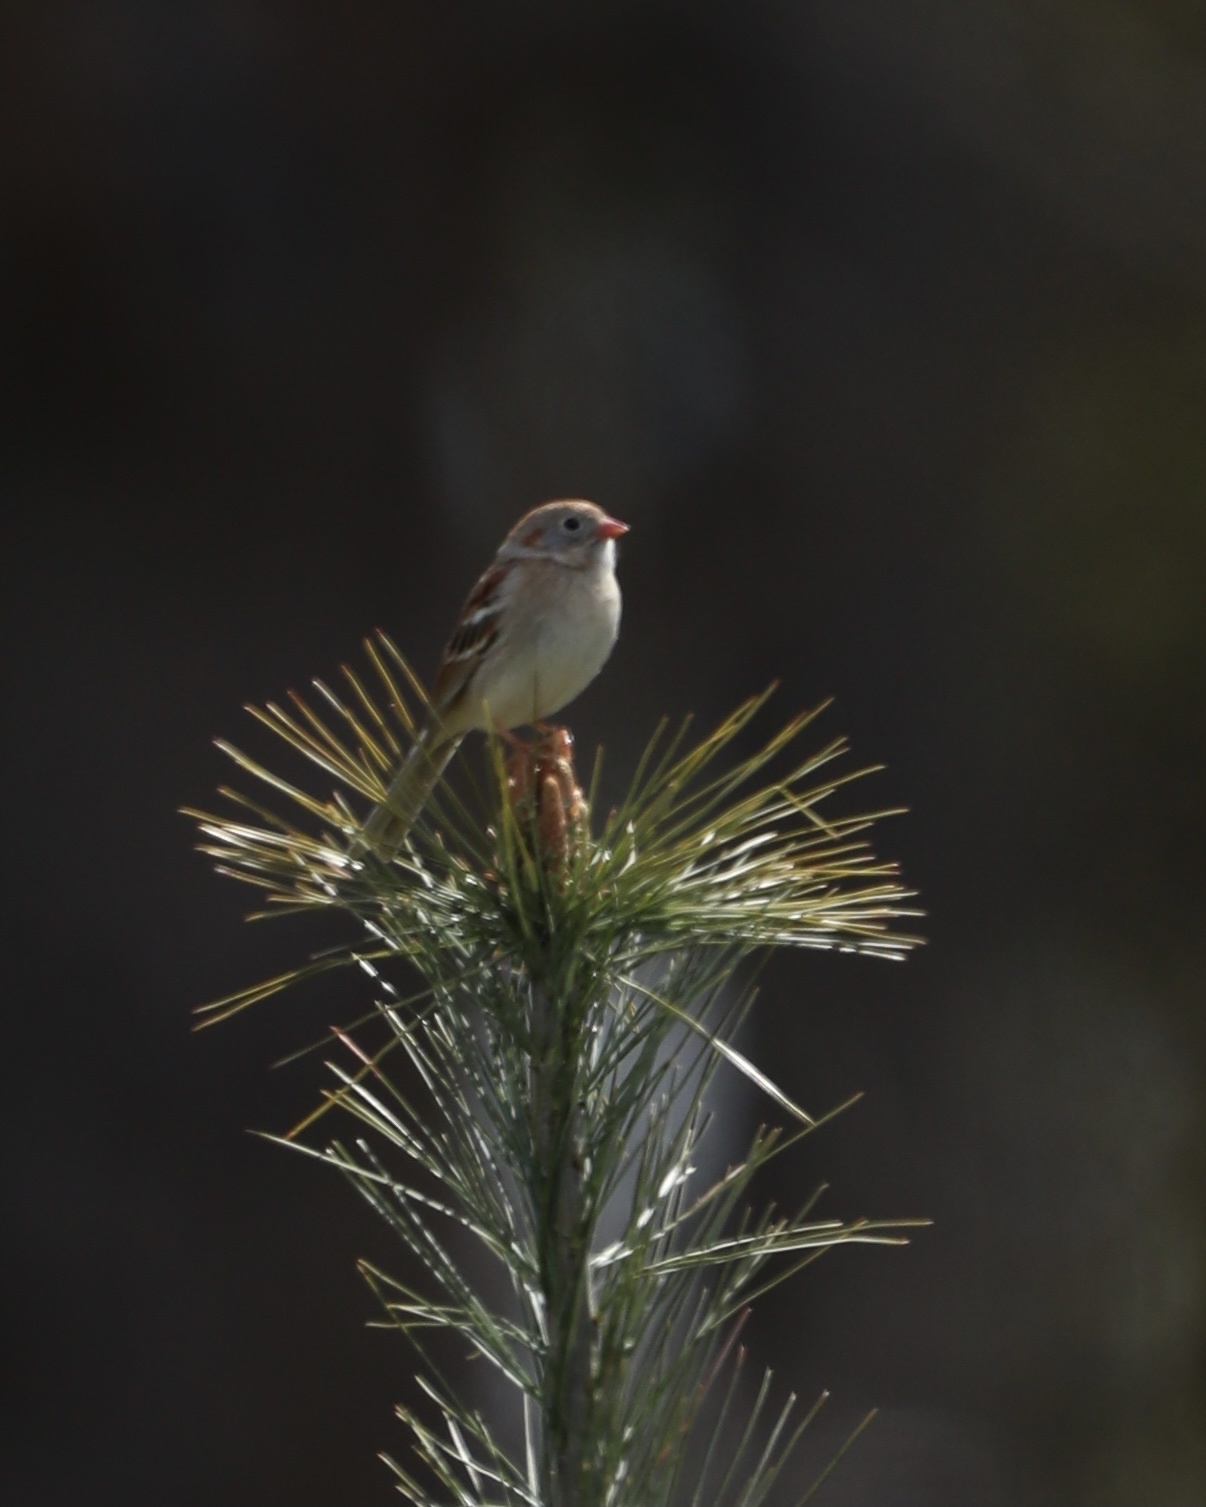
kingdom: Animalia
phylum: Chordata
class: Aves
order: Passeriformes
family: Passerellidae
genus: Spizella
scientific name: Spizella pusilla
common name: Field sparrow
